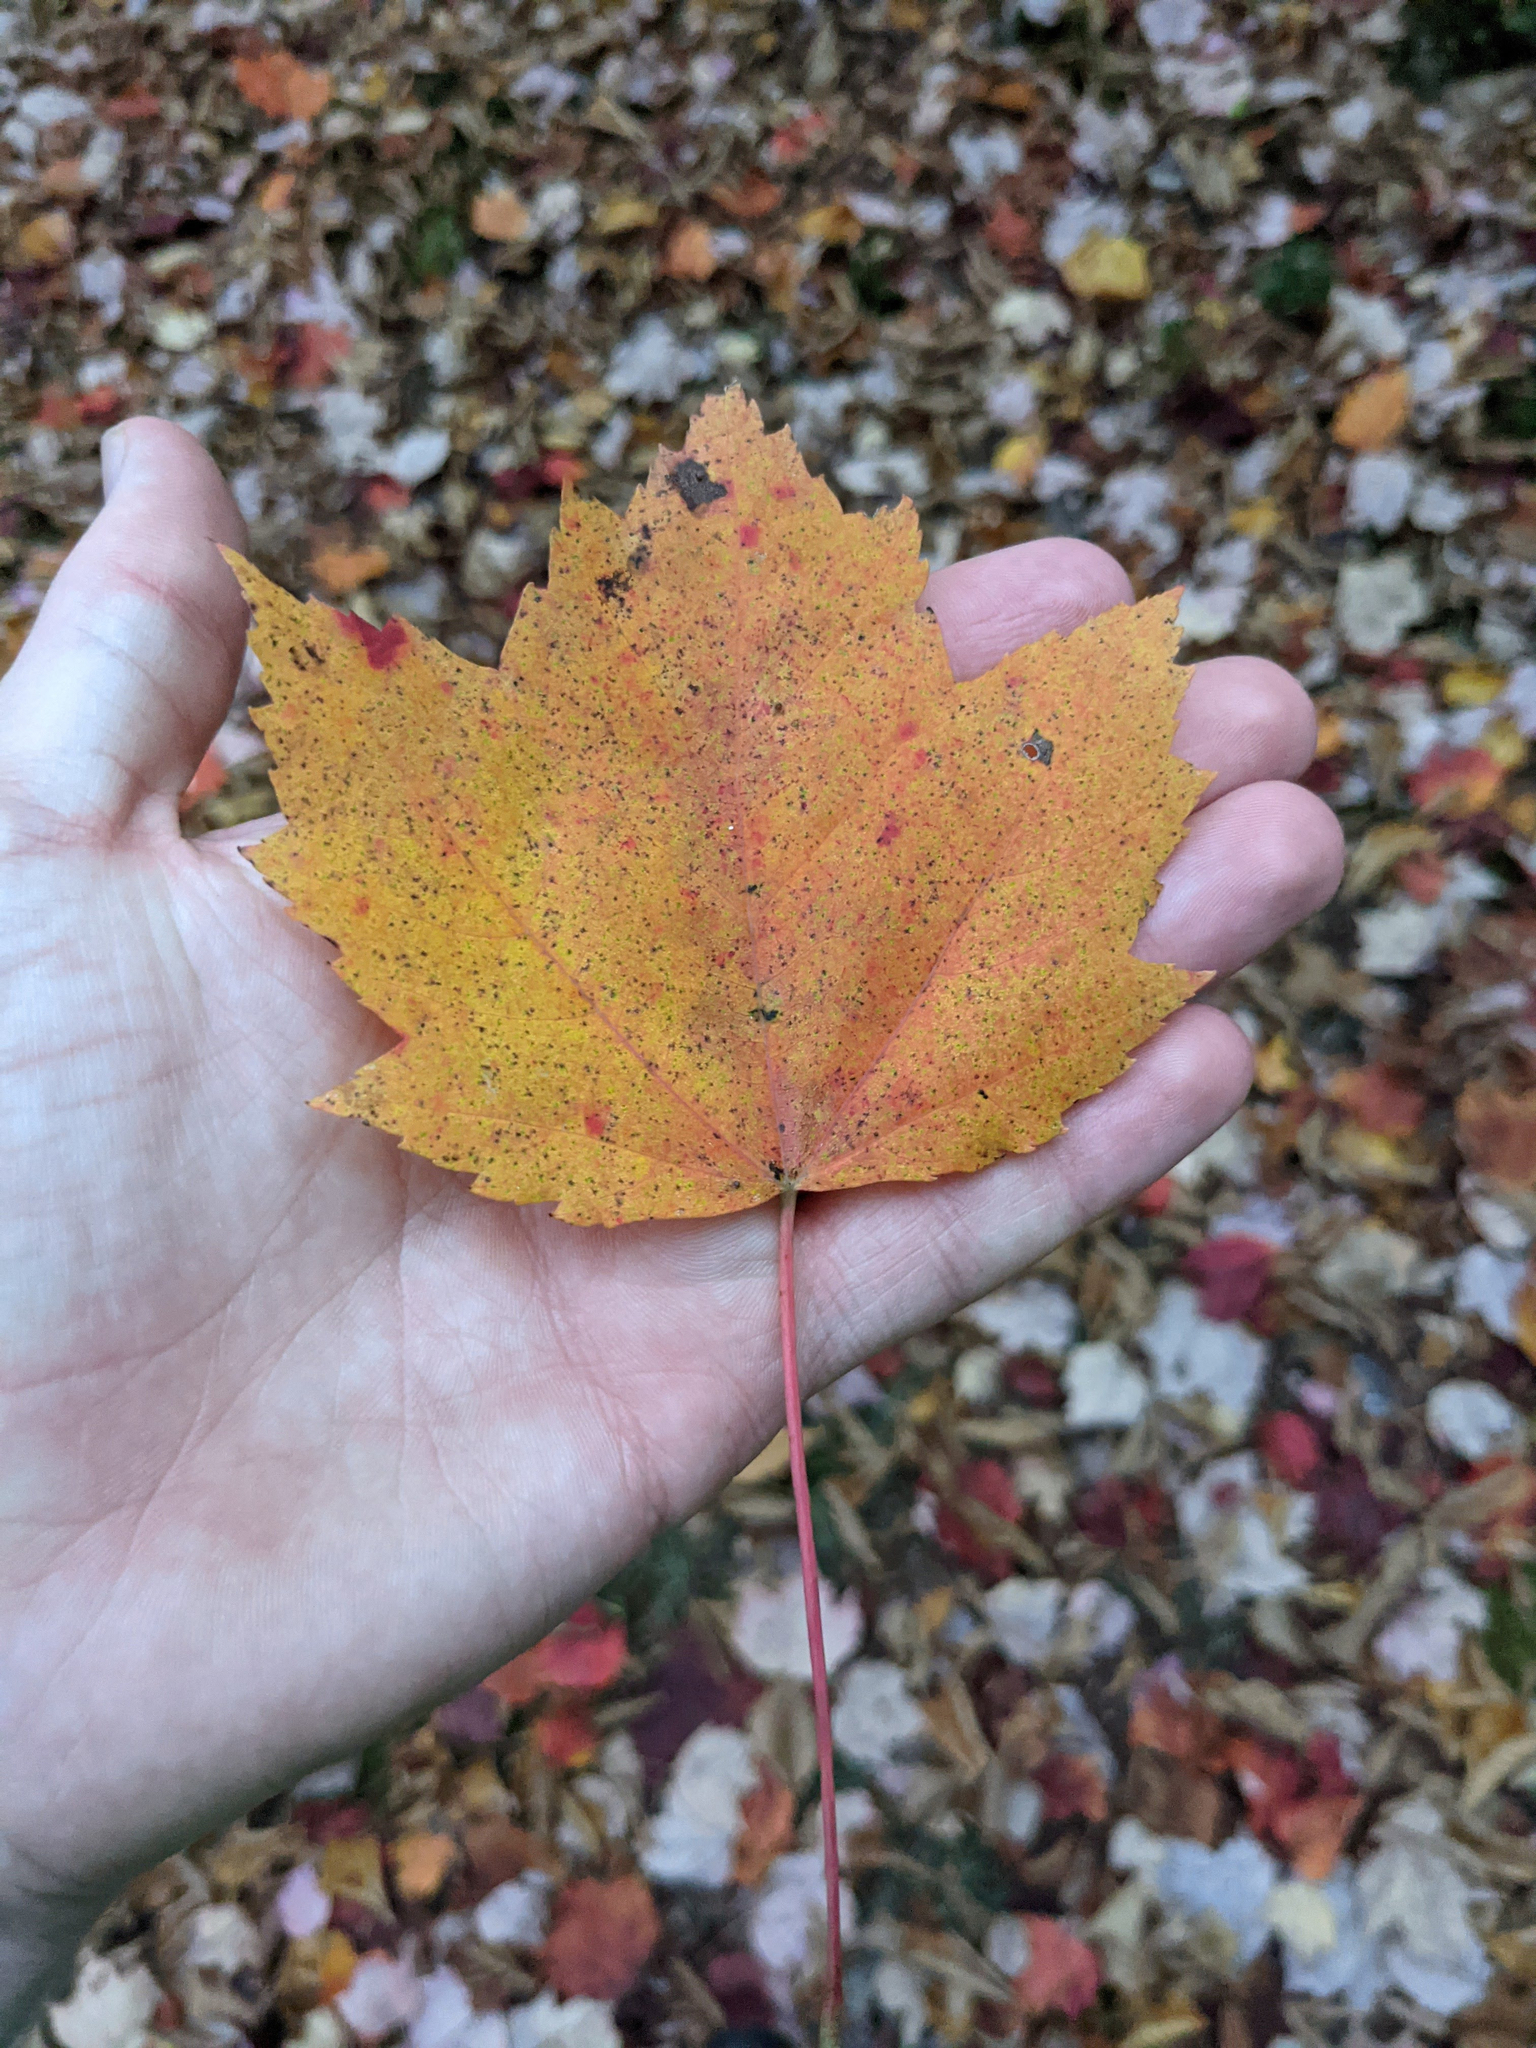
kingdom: Plantae
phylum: Tracheophyta
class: Magnoliopsida
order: Sapindales
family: Sapindaceae
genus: Acer
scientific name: Acer rubrum
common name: Red maple
